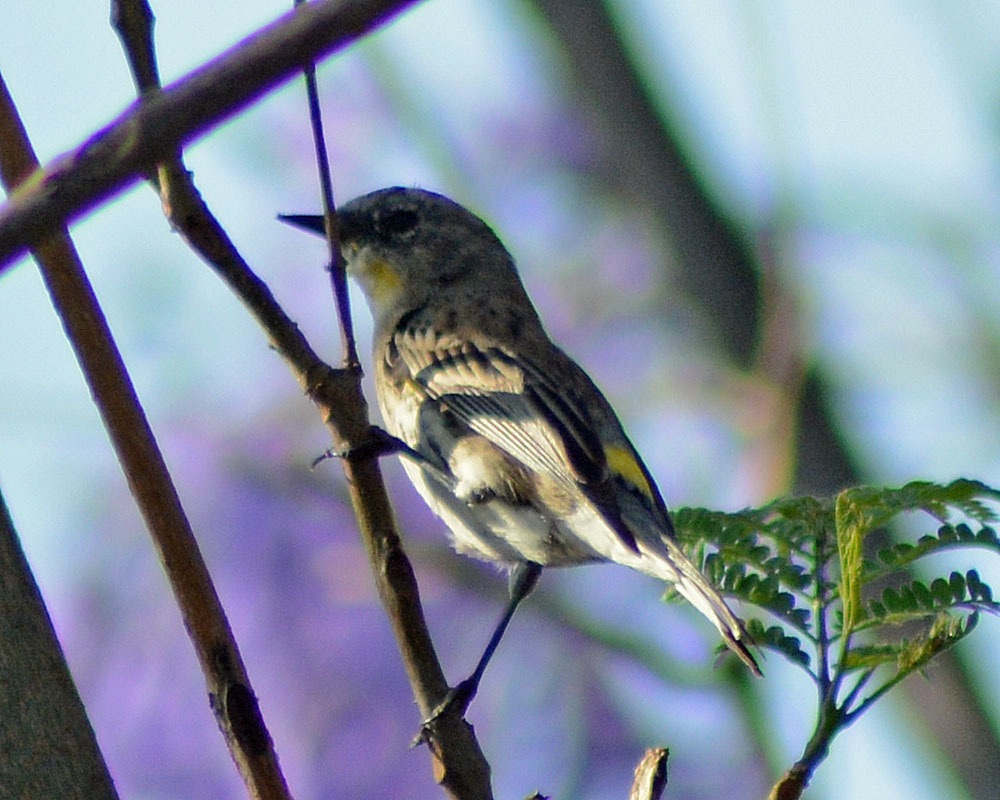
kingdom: Animalia
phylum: Chordata
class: Aves
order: Passeriformes
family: Parulidae
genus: Setophaga
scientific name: Setophaga coronata
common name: Myrtle warbler
